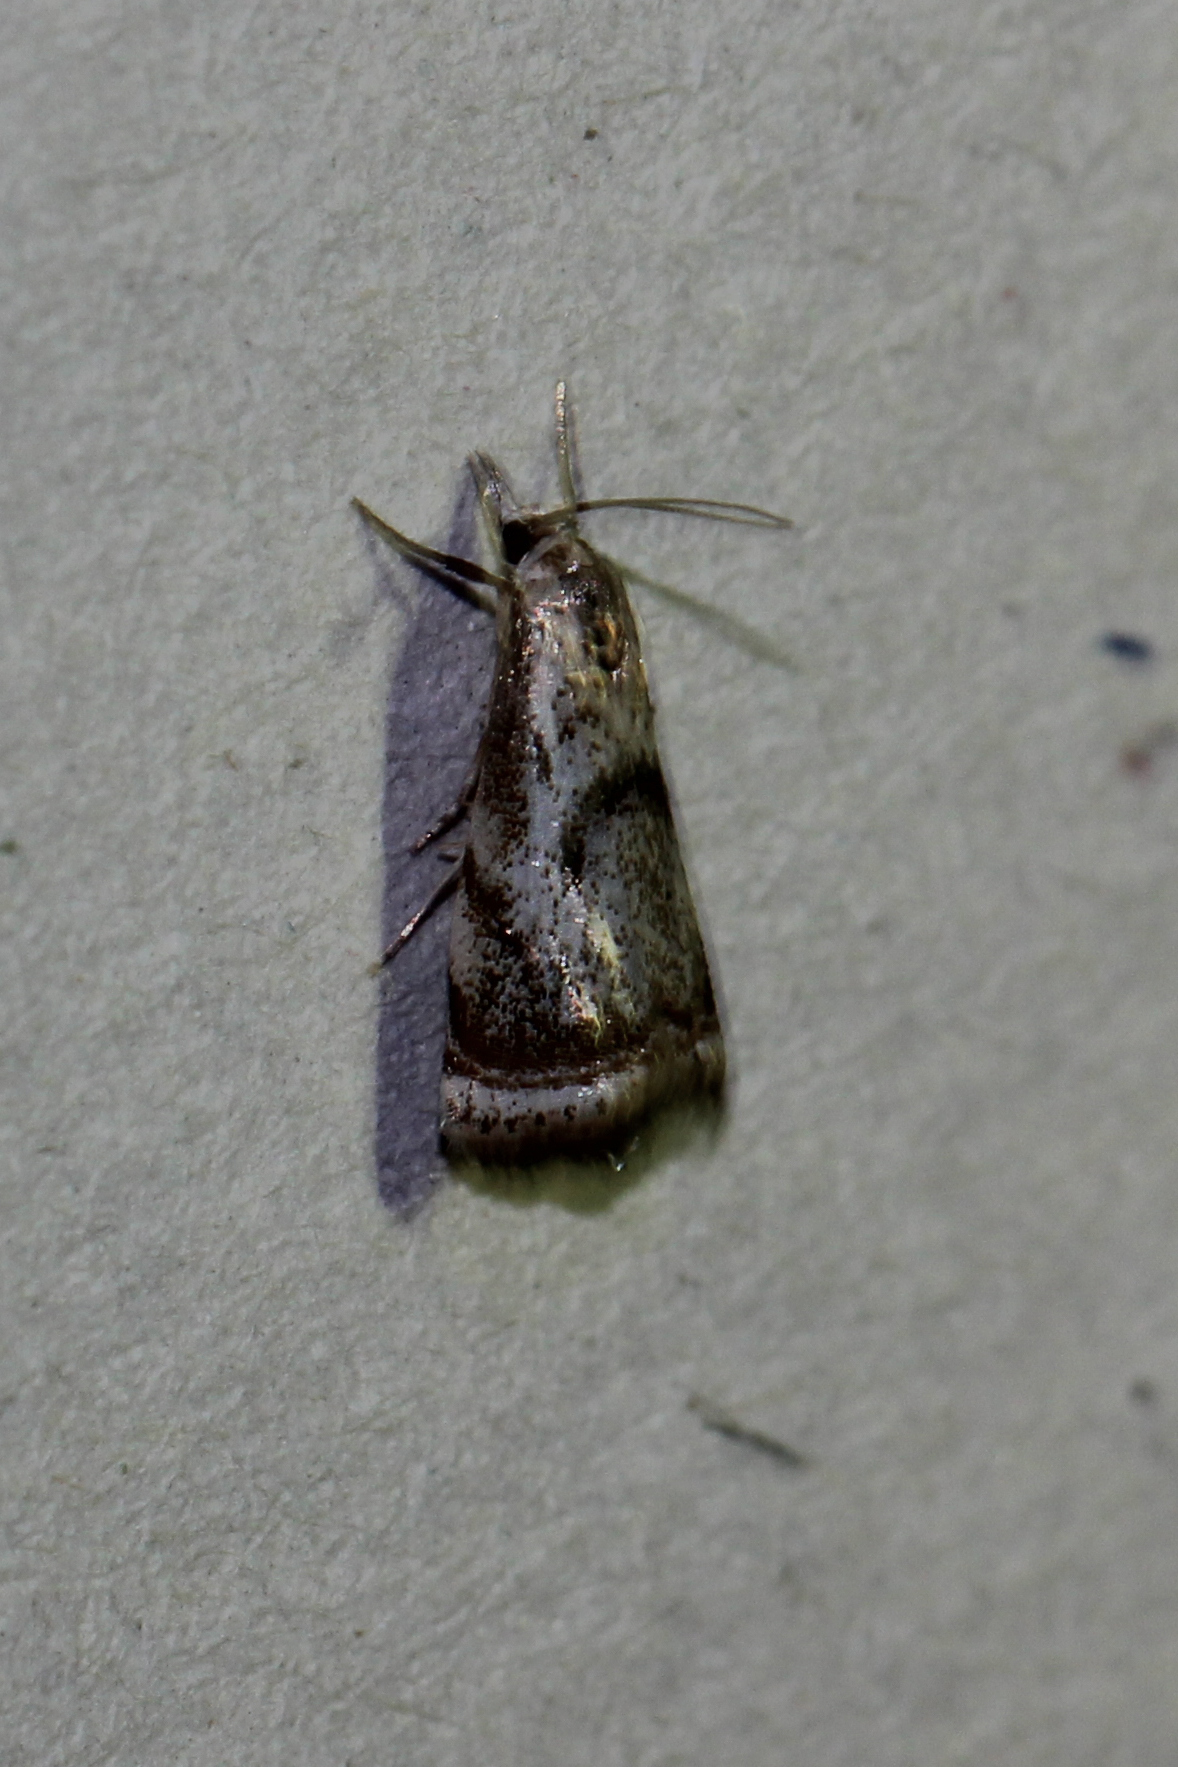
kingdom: Animalia
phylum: Arthropoda
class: Insecta
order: Lepidoptera
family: Crambidae
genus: Microcrambus
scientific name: Microcrambus elegans
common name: Elegant grass-veneer
